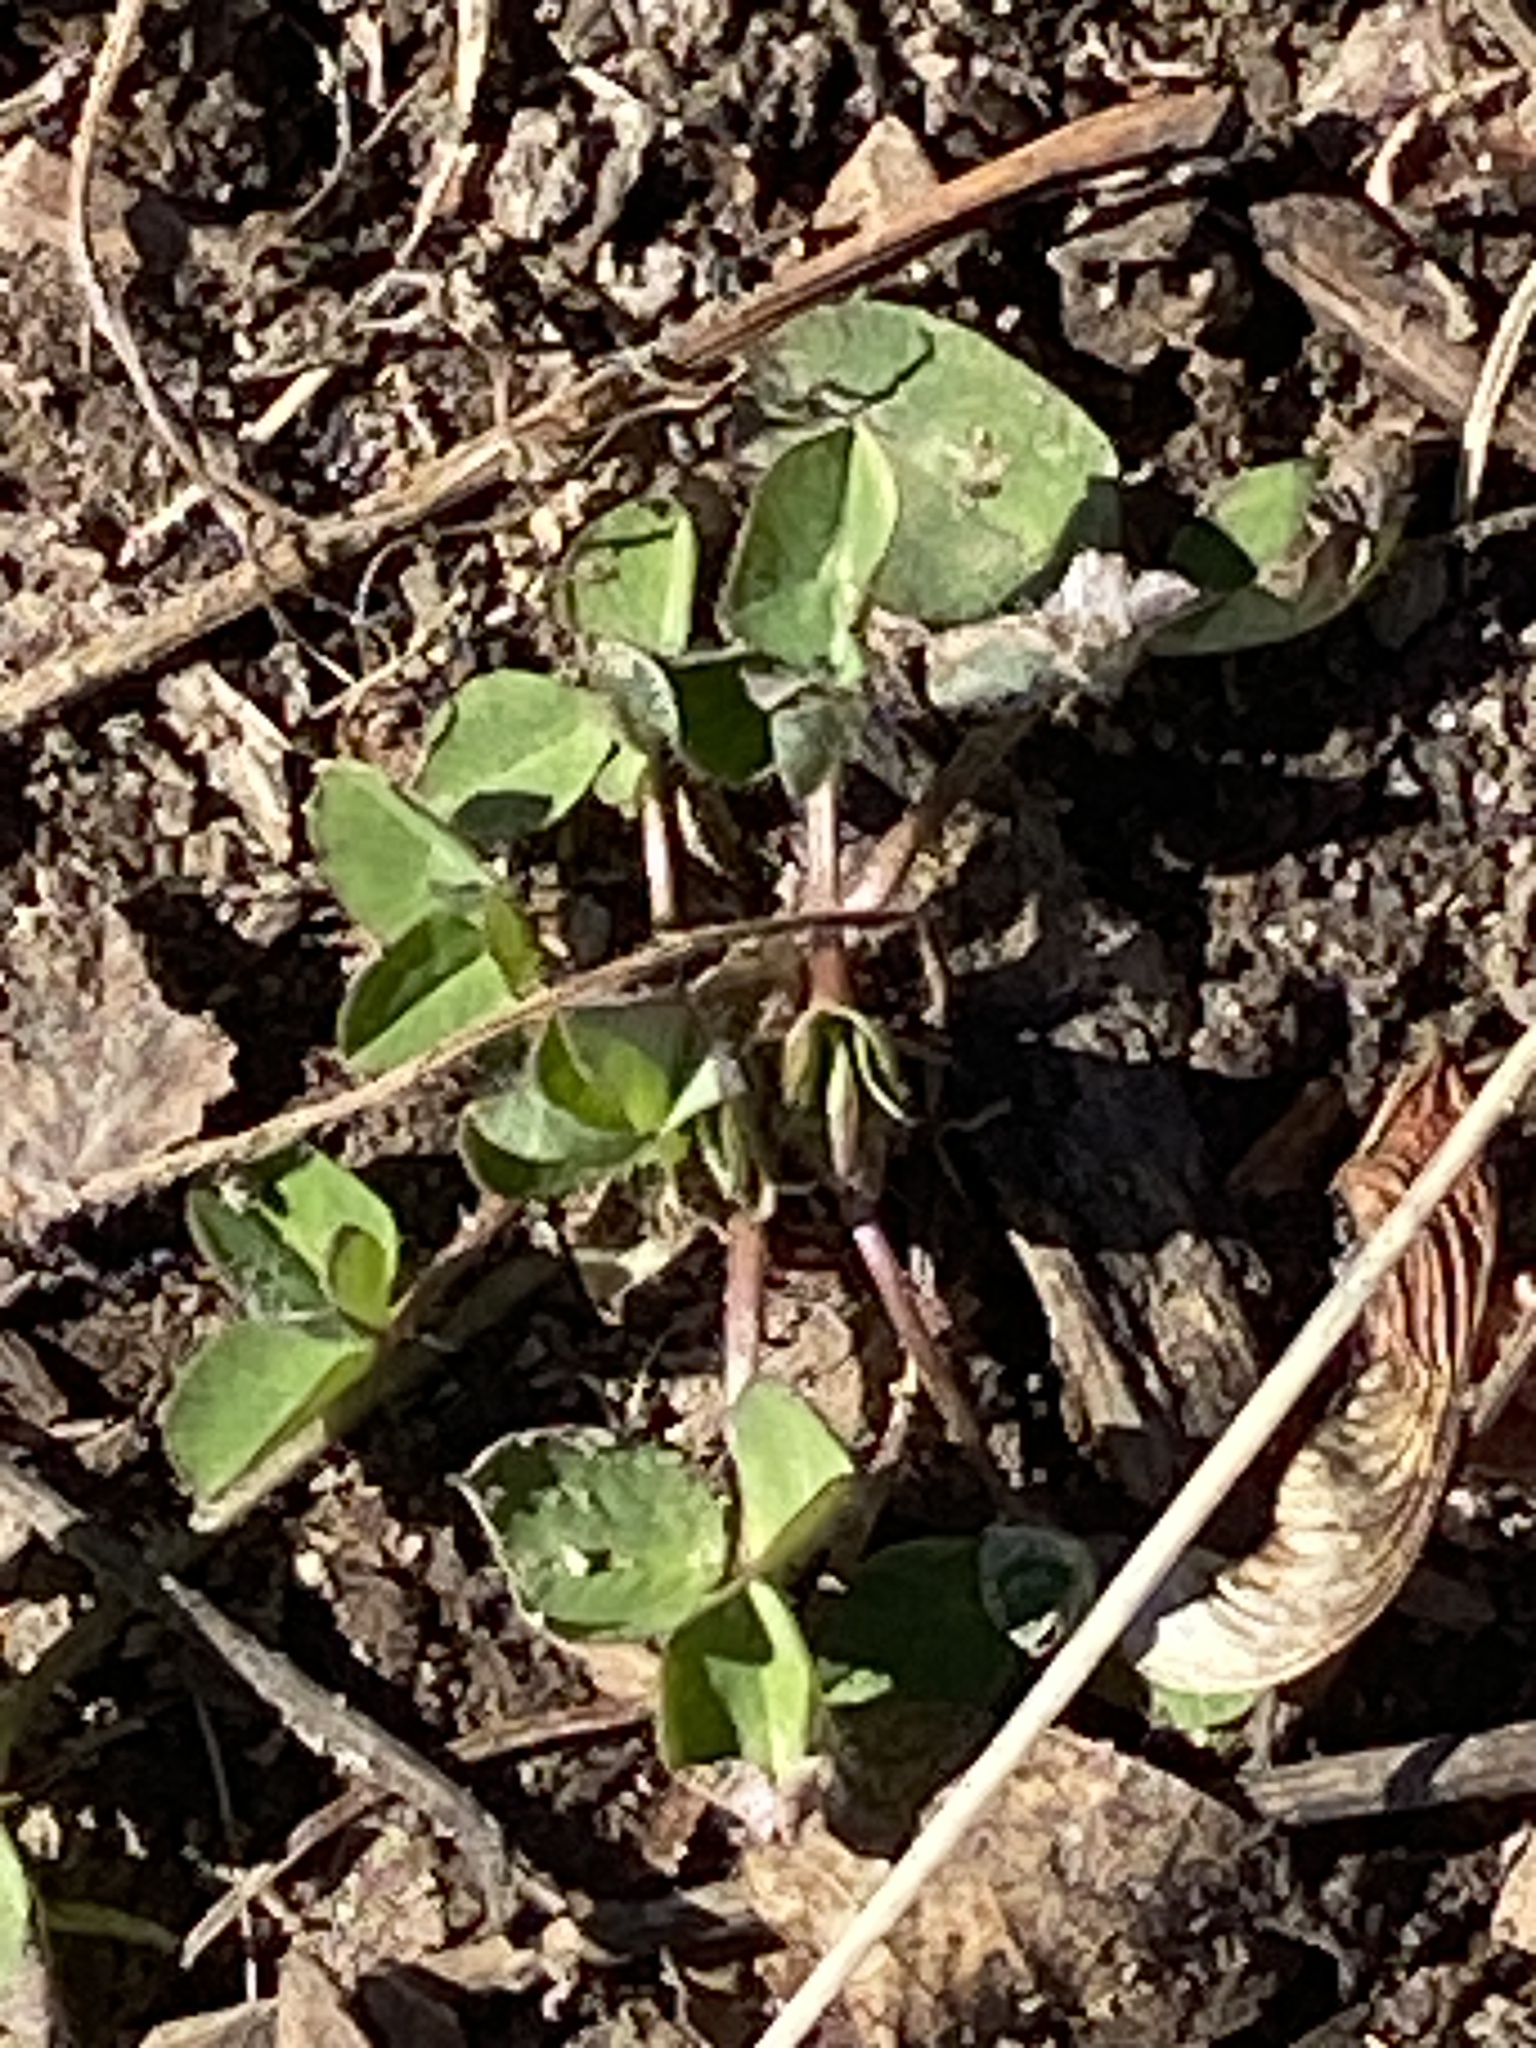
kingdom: Plantae
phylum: Tracheophyta
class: Magnoliopsida
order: Fabales
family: Fabaceae
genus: Trifolium
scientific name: Trifolium repens
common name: White clover
